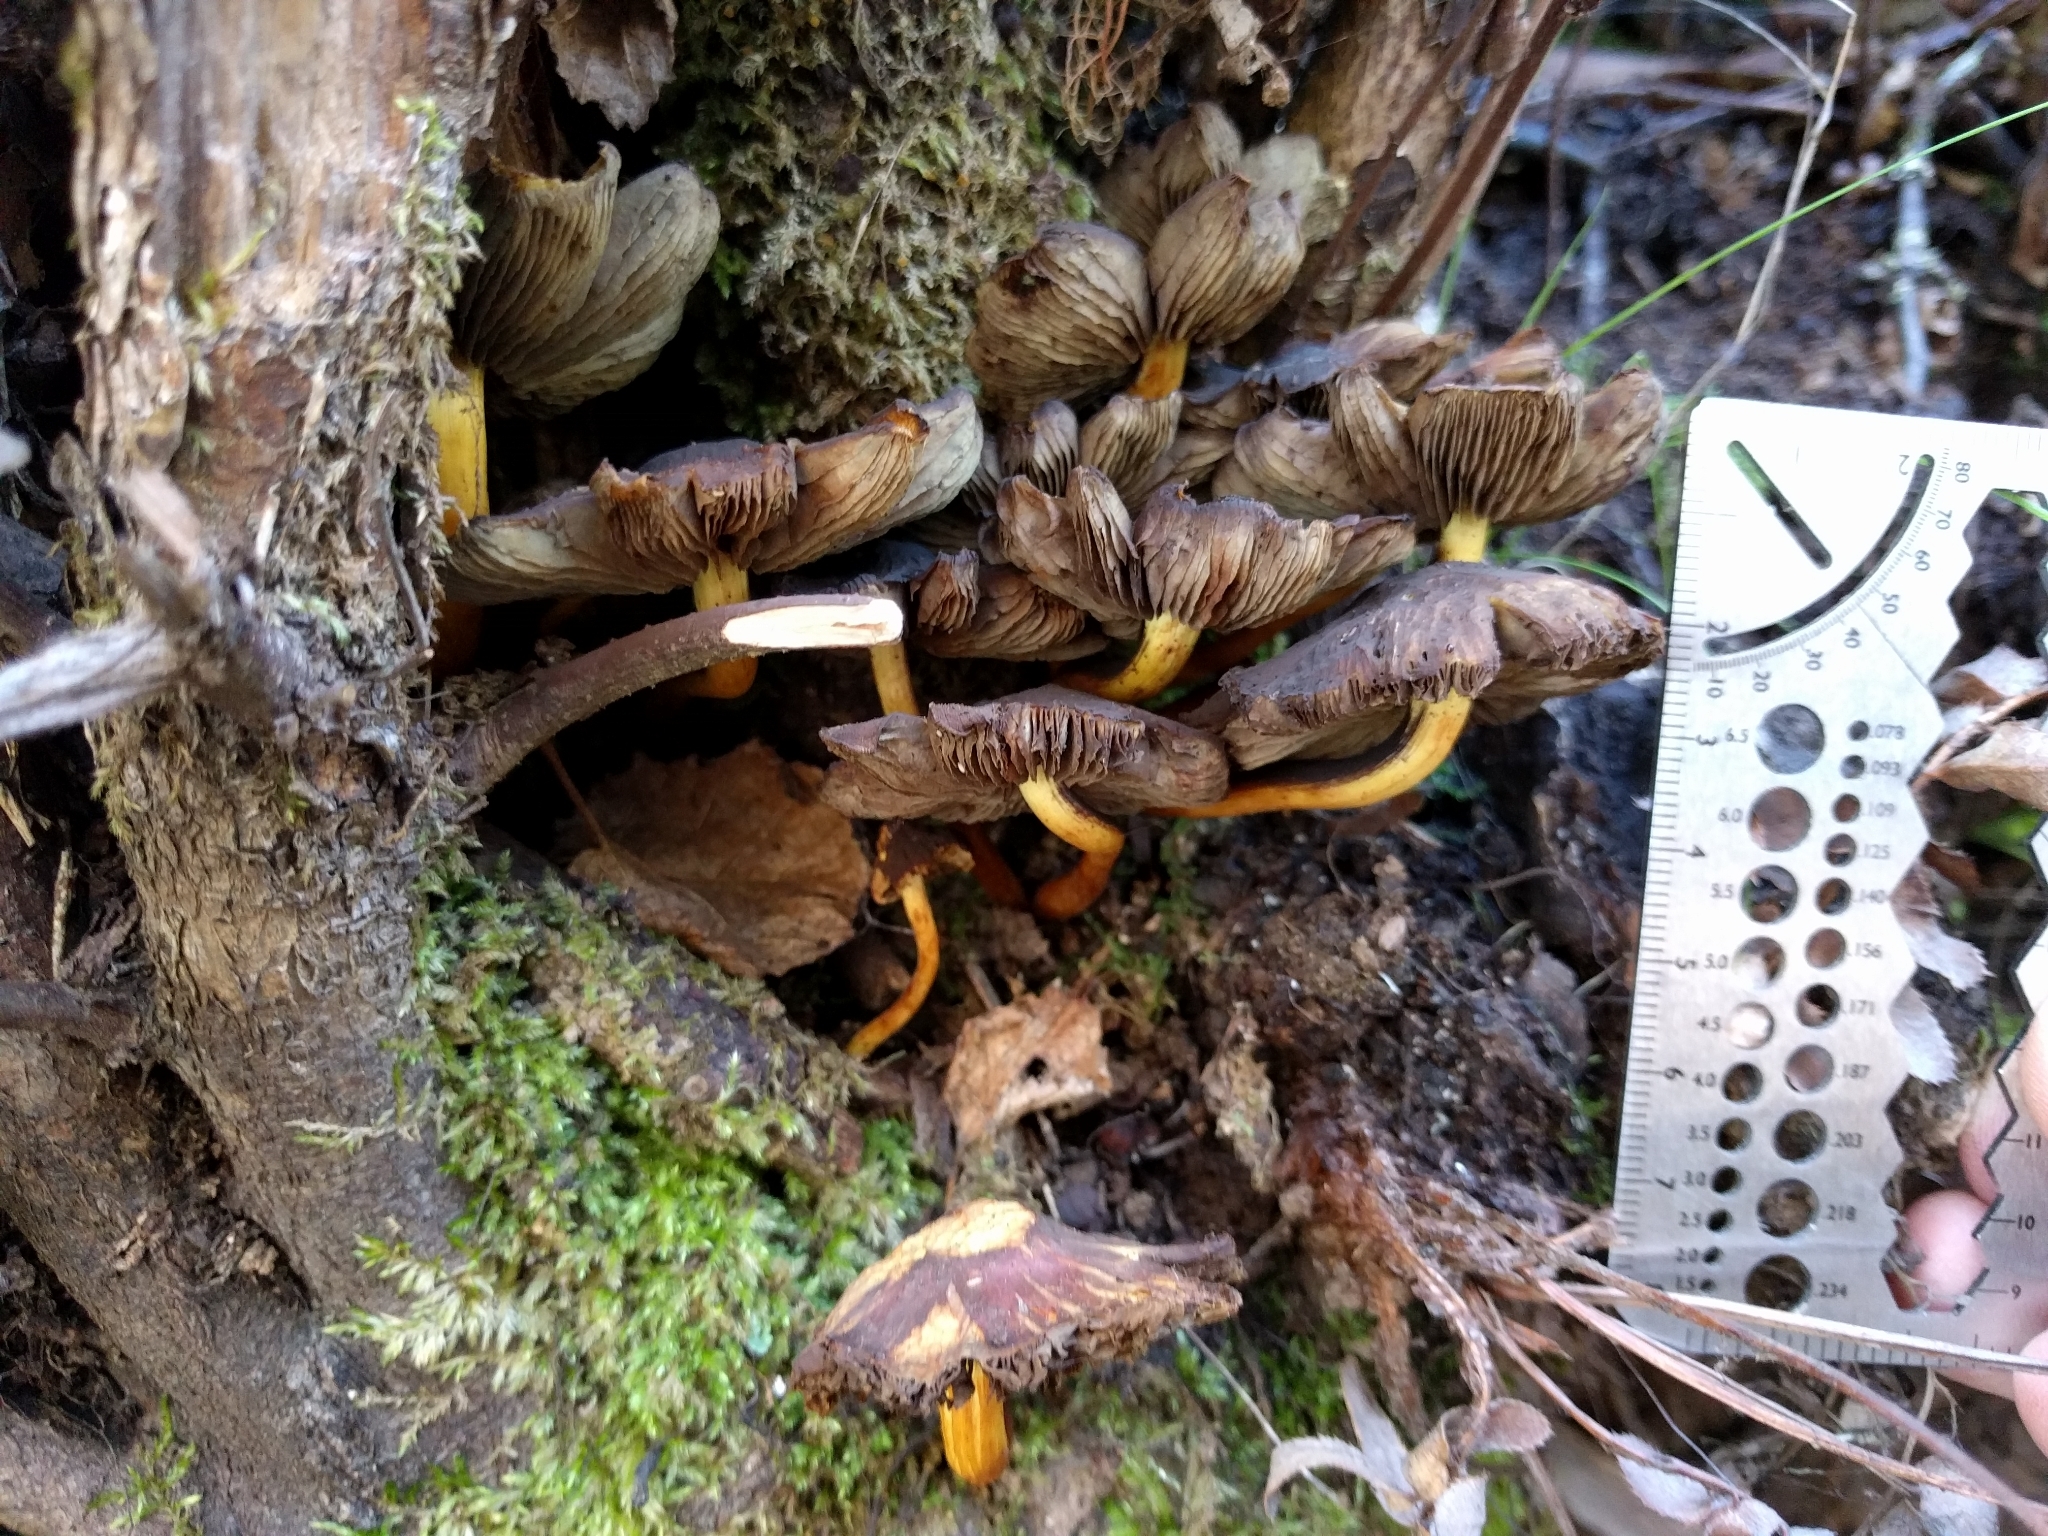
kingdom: Fungi
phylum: Basidiomycota
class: Agaricomycetes
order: Agaricales
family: Strophariaceae
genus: Hypholoma
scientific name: Hypholoma fasciculare
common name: Sulphur tuft
